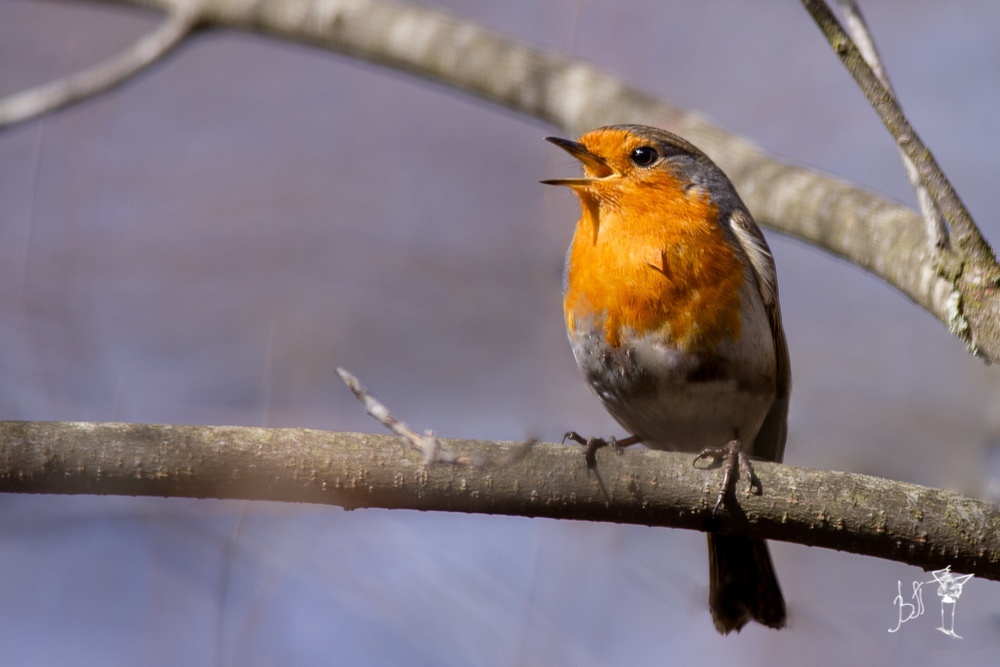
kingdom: Animalia
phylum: Chordata
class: Aves
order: Passeriformes
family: Muscicapidae
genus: Erithacus
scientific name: Erithacus rubecula
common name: European robin
